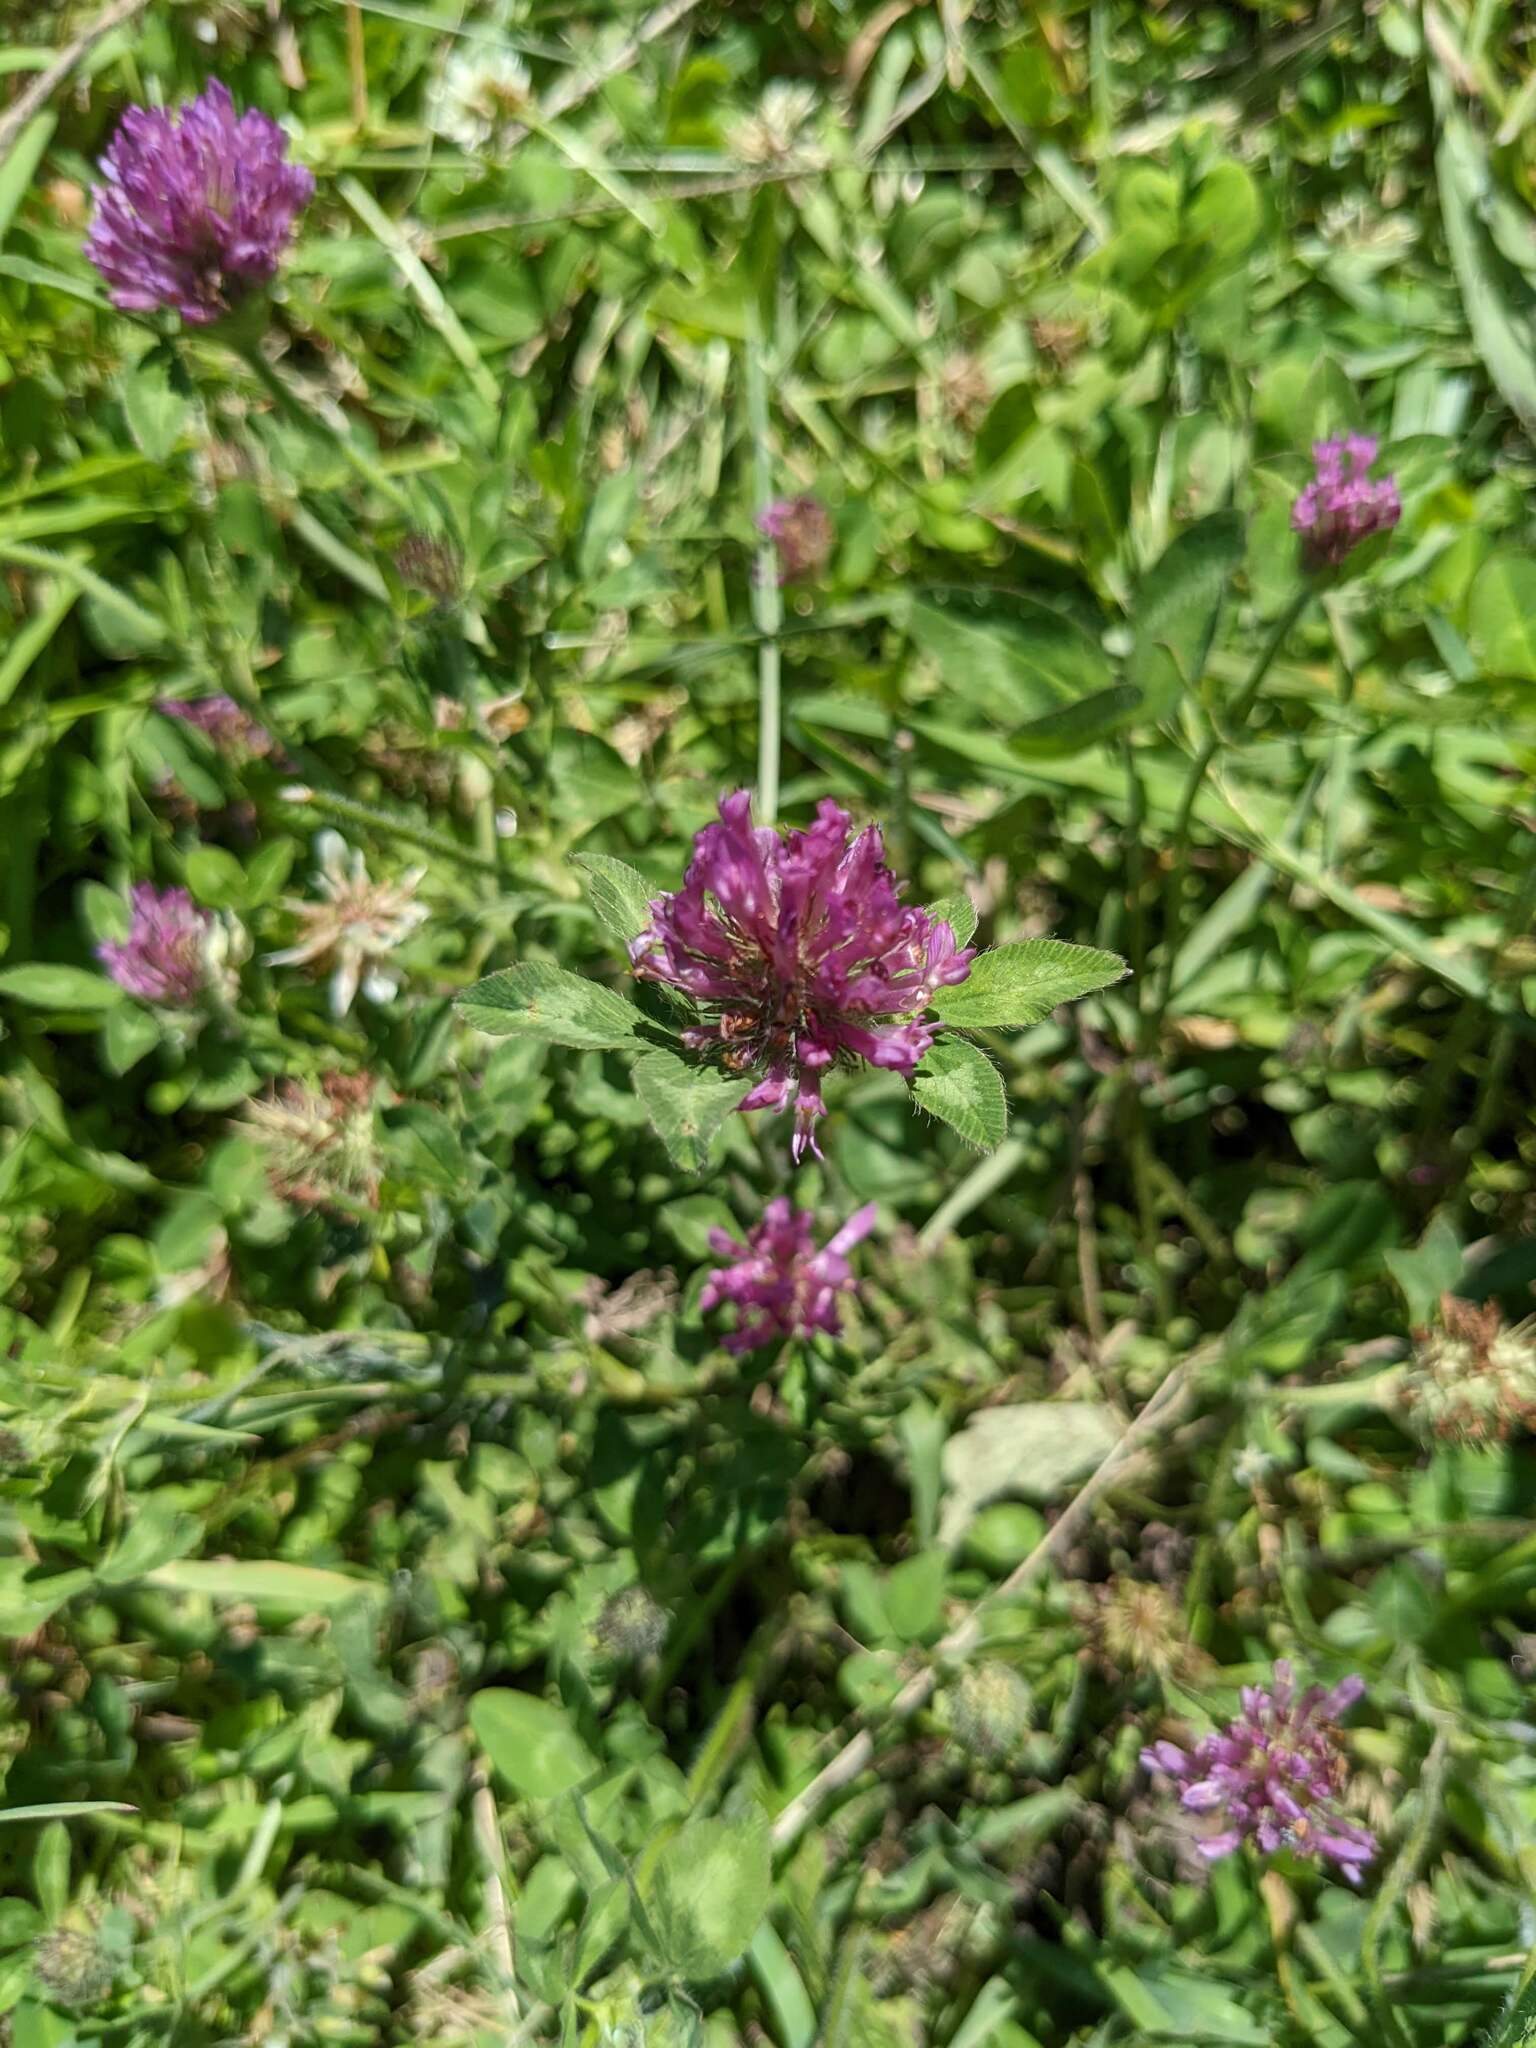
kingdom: Plantae
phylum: Tracheophyta
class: Magnoliopsida
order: Fabales
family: Fabaceae
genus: Trifolium
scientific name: Trifolium pratense
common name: Red clover
